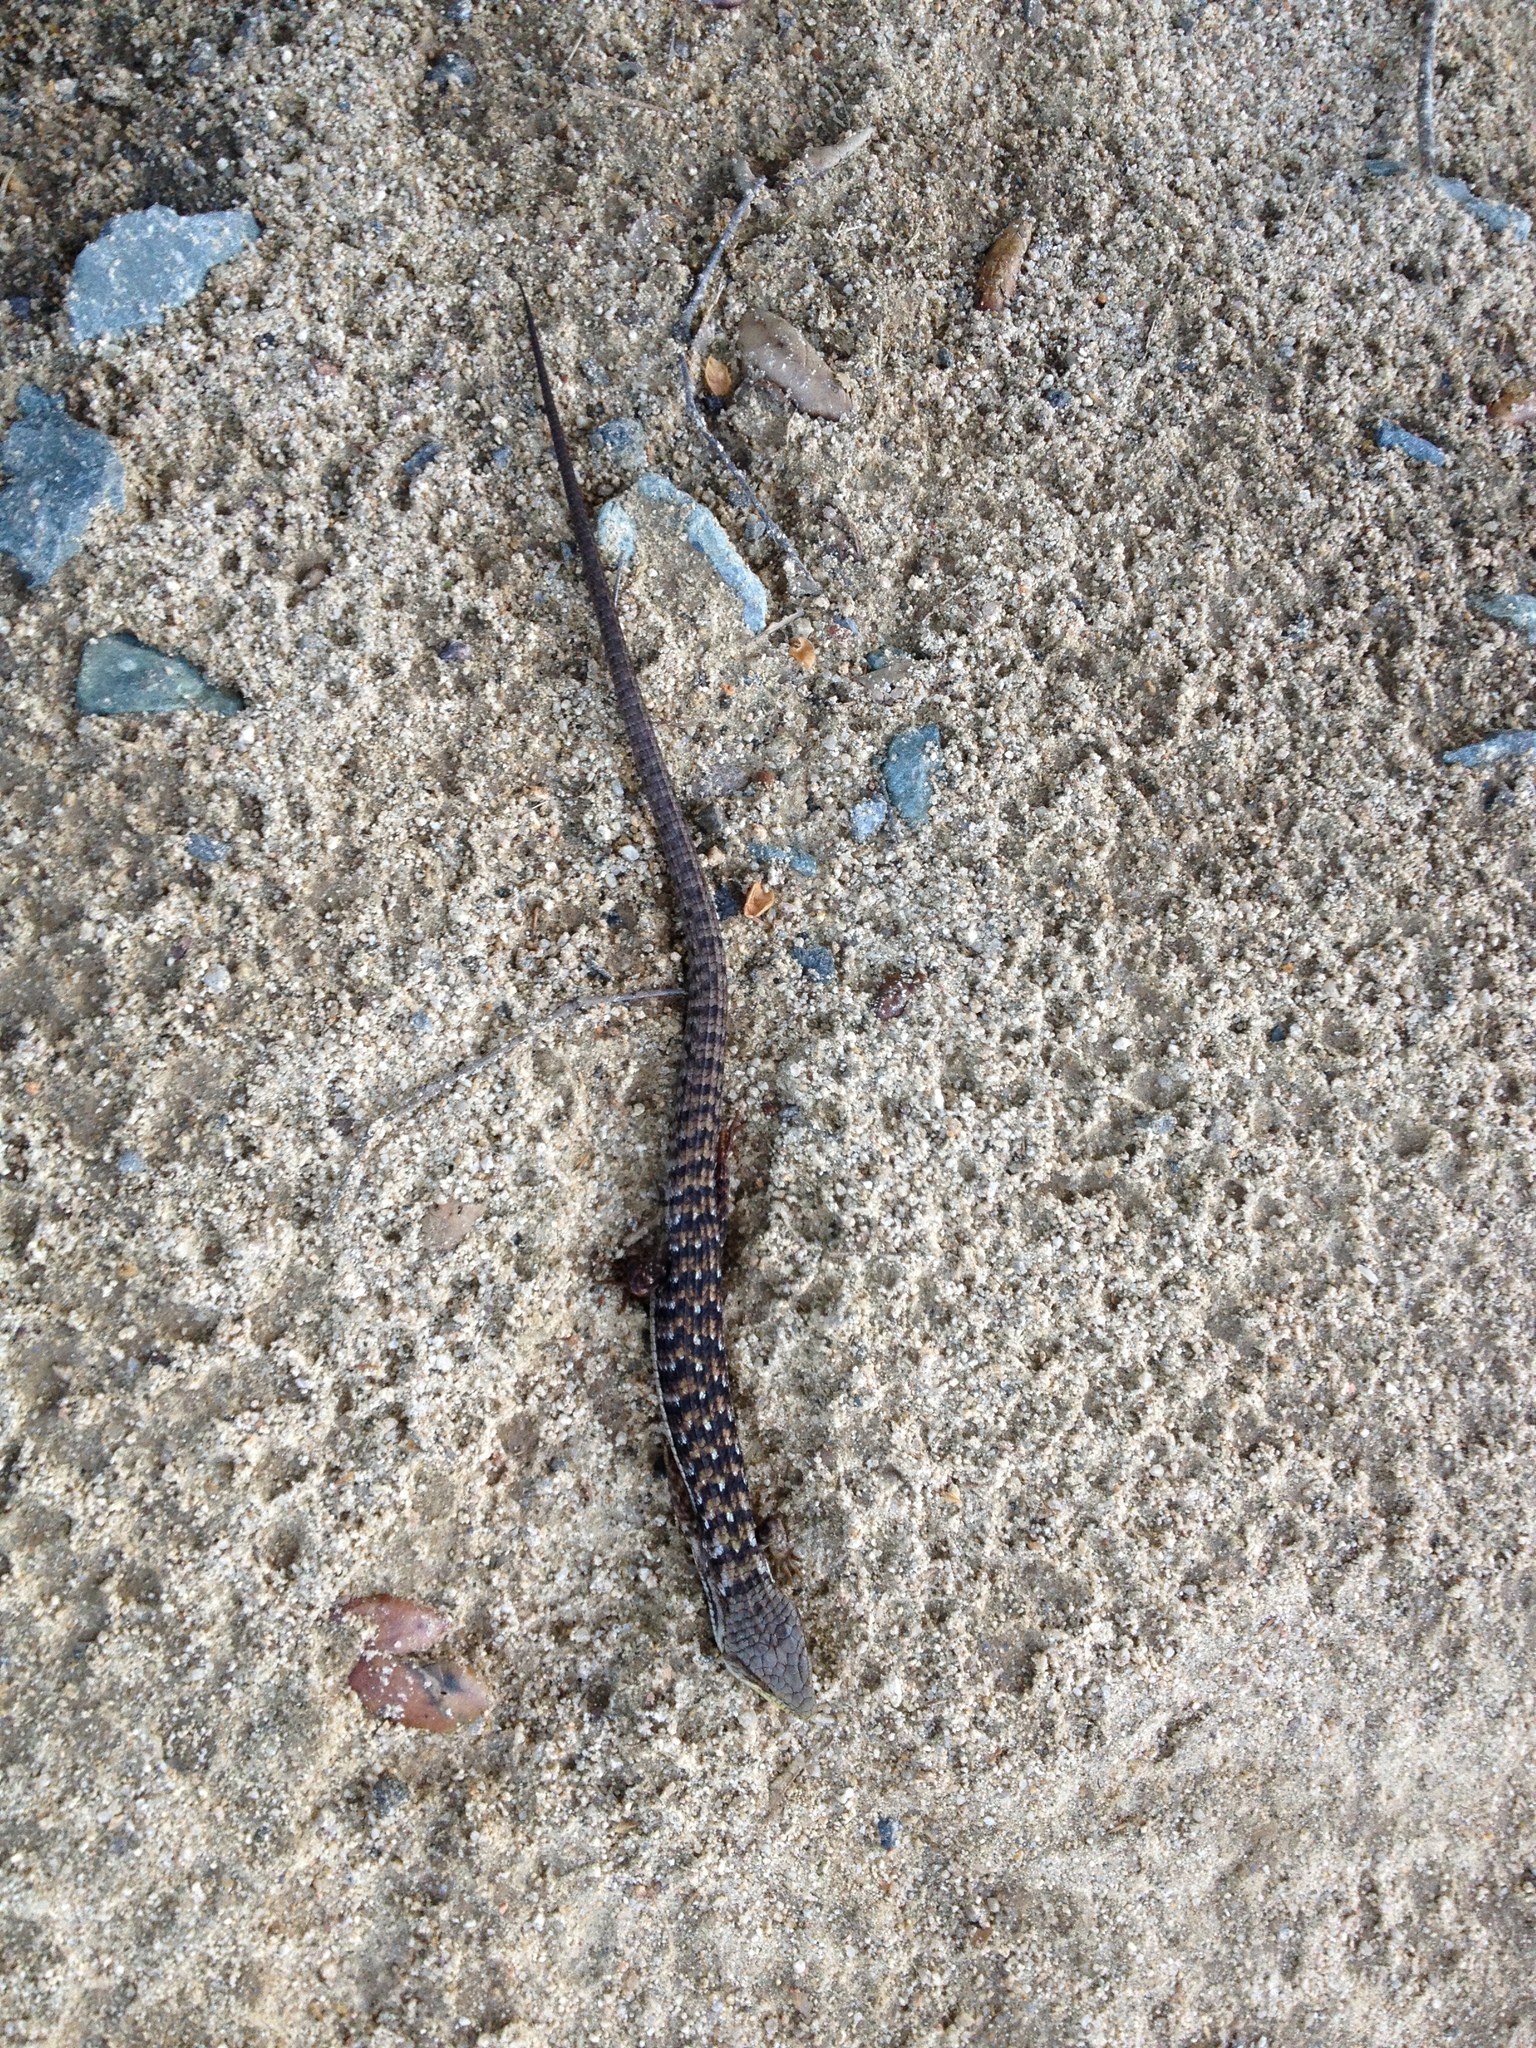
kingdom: Animalia
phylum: Chordata
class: Squamata
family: Anguidae
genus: Elgaria
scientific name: Elgaria multicarinata
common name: Southern alligator lizard
